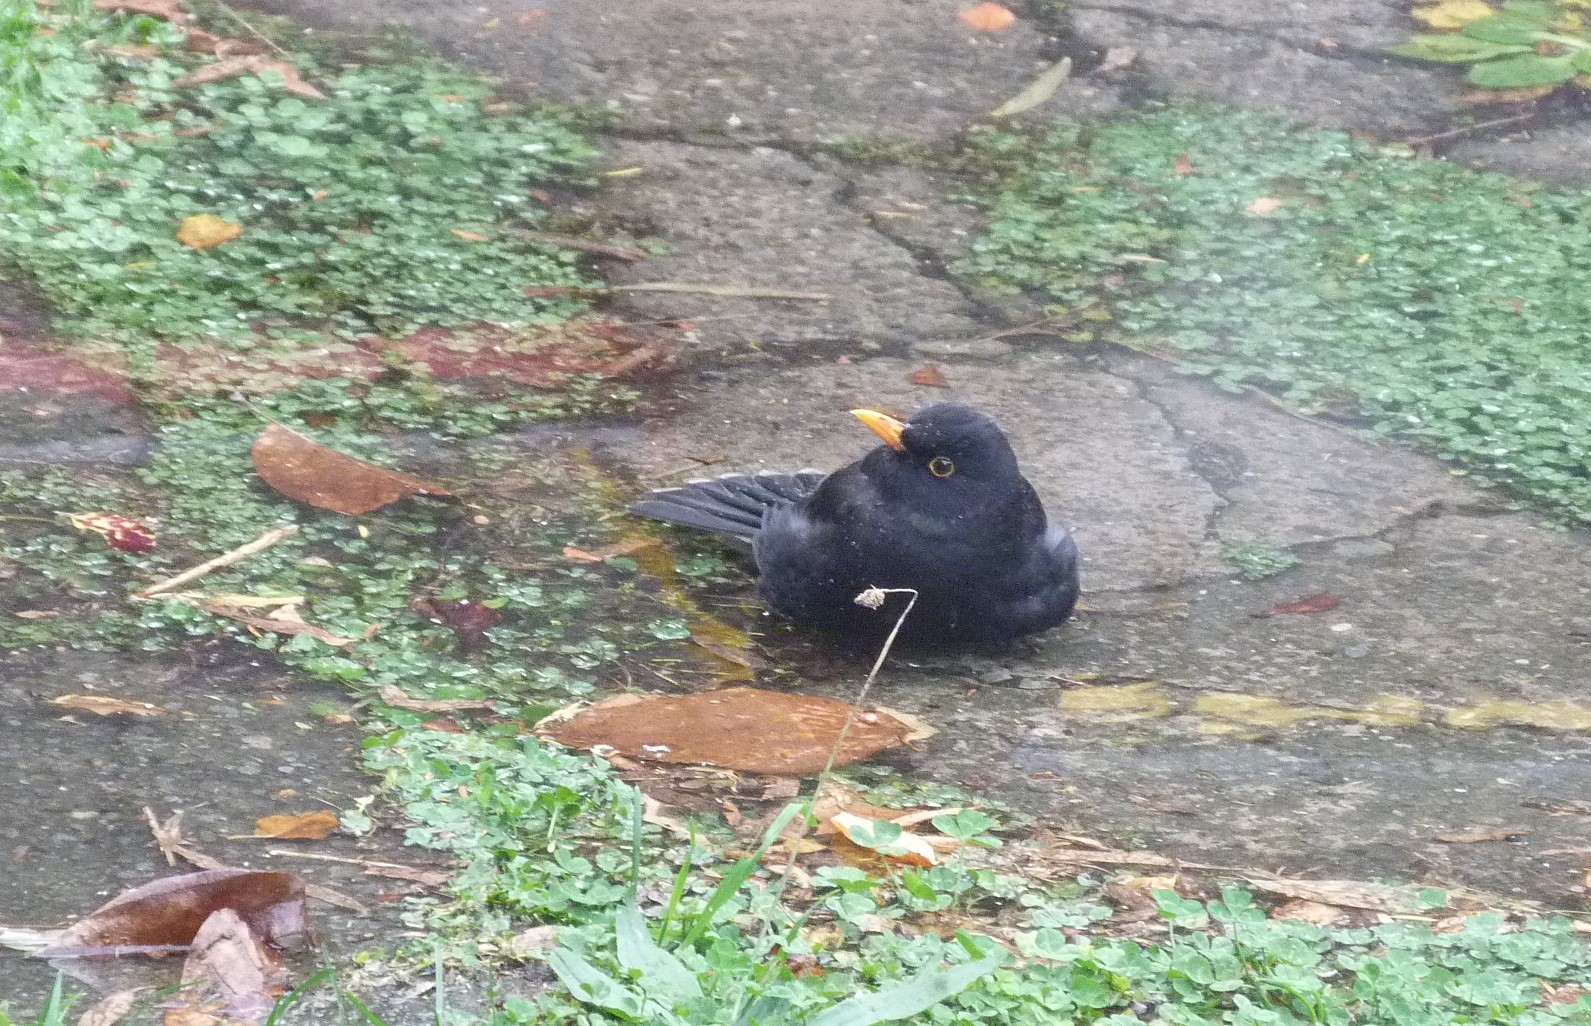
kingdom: Animalia
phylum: Chordata
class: Aves
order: Passeriformes
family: Turdidae
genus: Turdus
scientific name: Turdus merula
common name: Common blackbird
